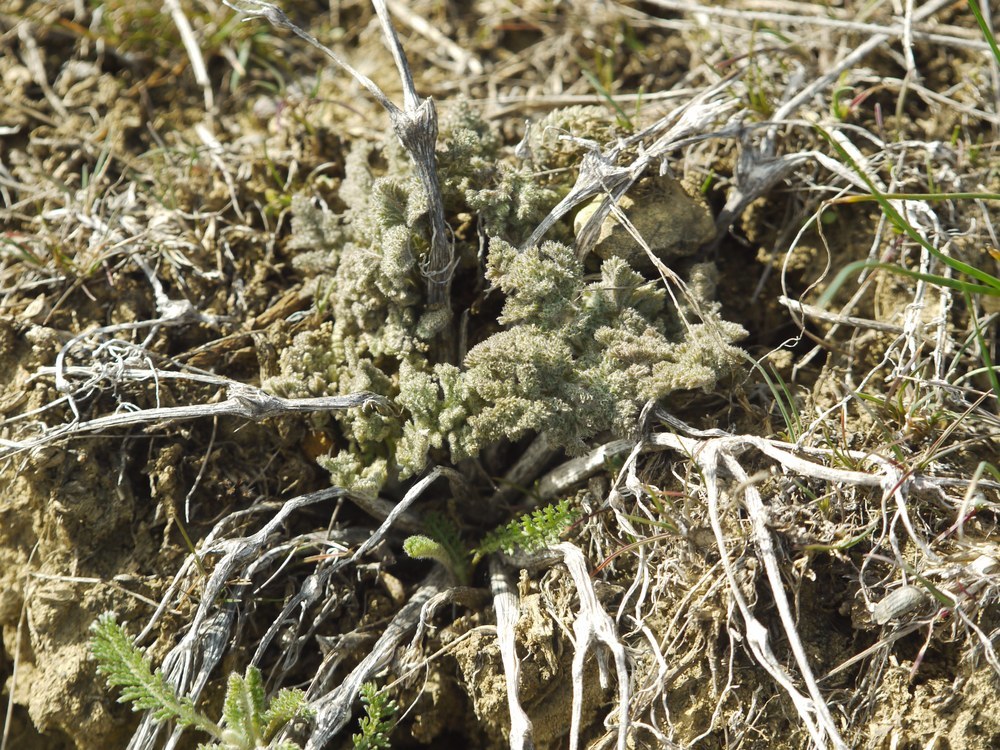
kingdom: Plantae
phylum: Tracheophyta
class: Magnoliopsida
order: Apiales
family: Apiaceae
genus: Ferula
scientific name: Ferula caspica
